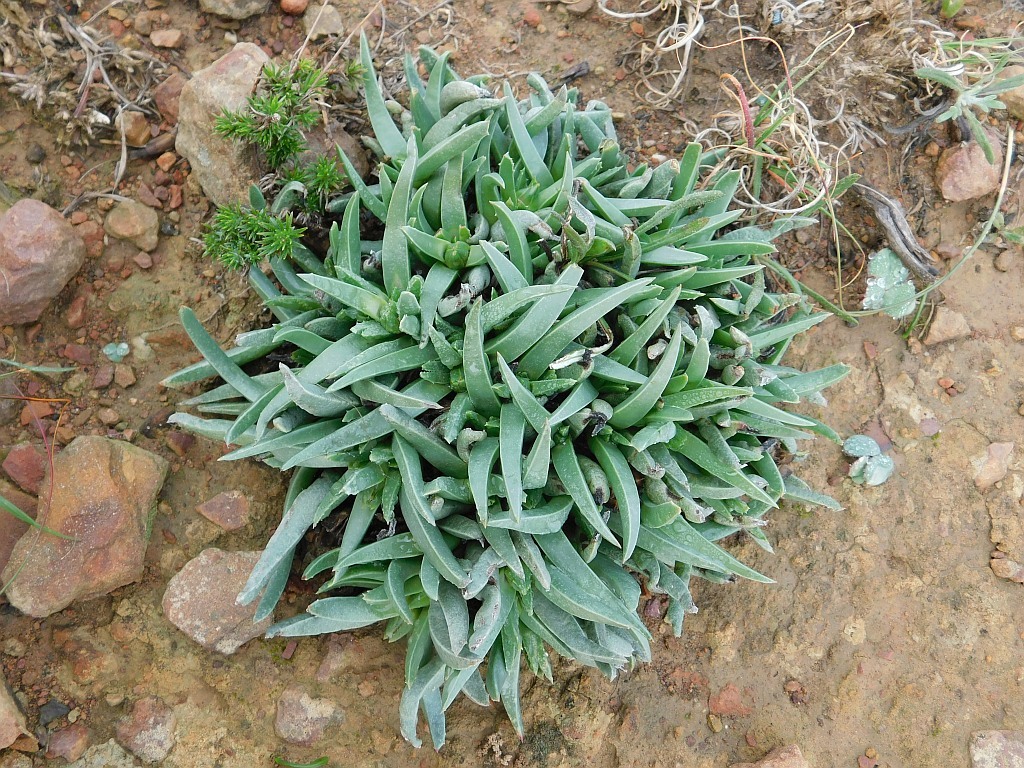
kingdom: Plantae
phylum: Tracheophyta
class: Magnoliopsida
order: Caryophyllales
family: Aizoaceae
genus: Acrodon
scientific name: Acrodon subulatus
